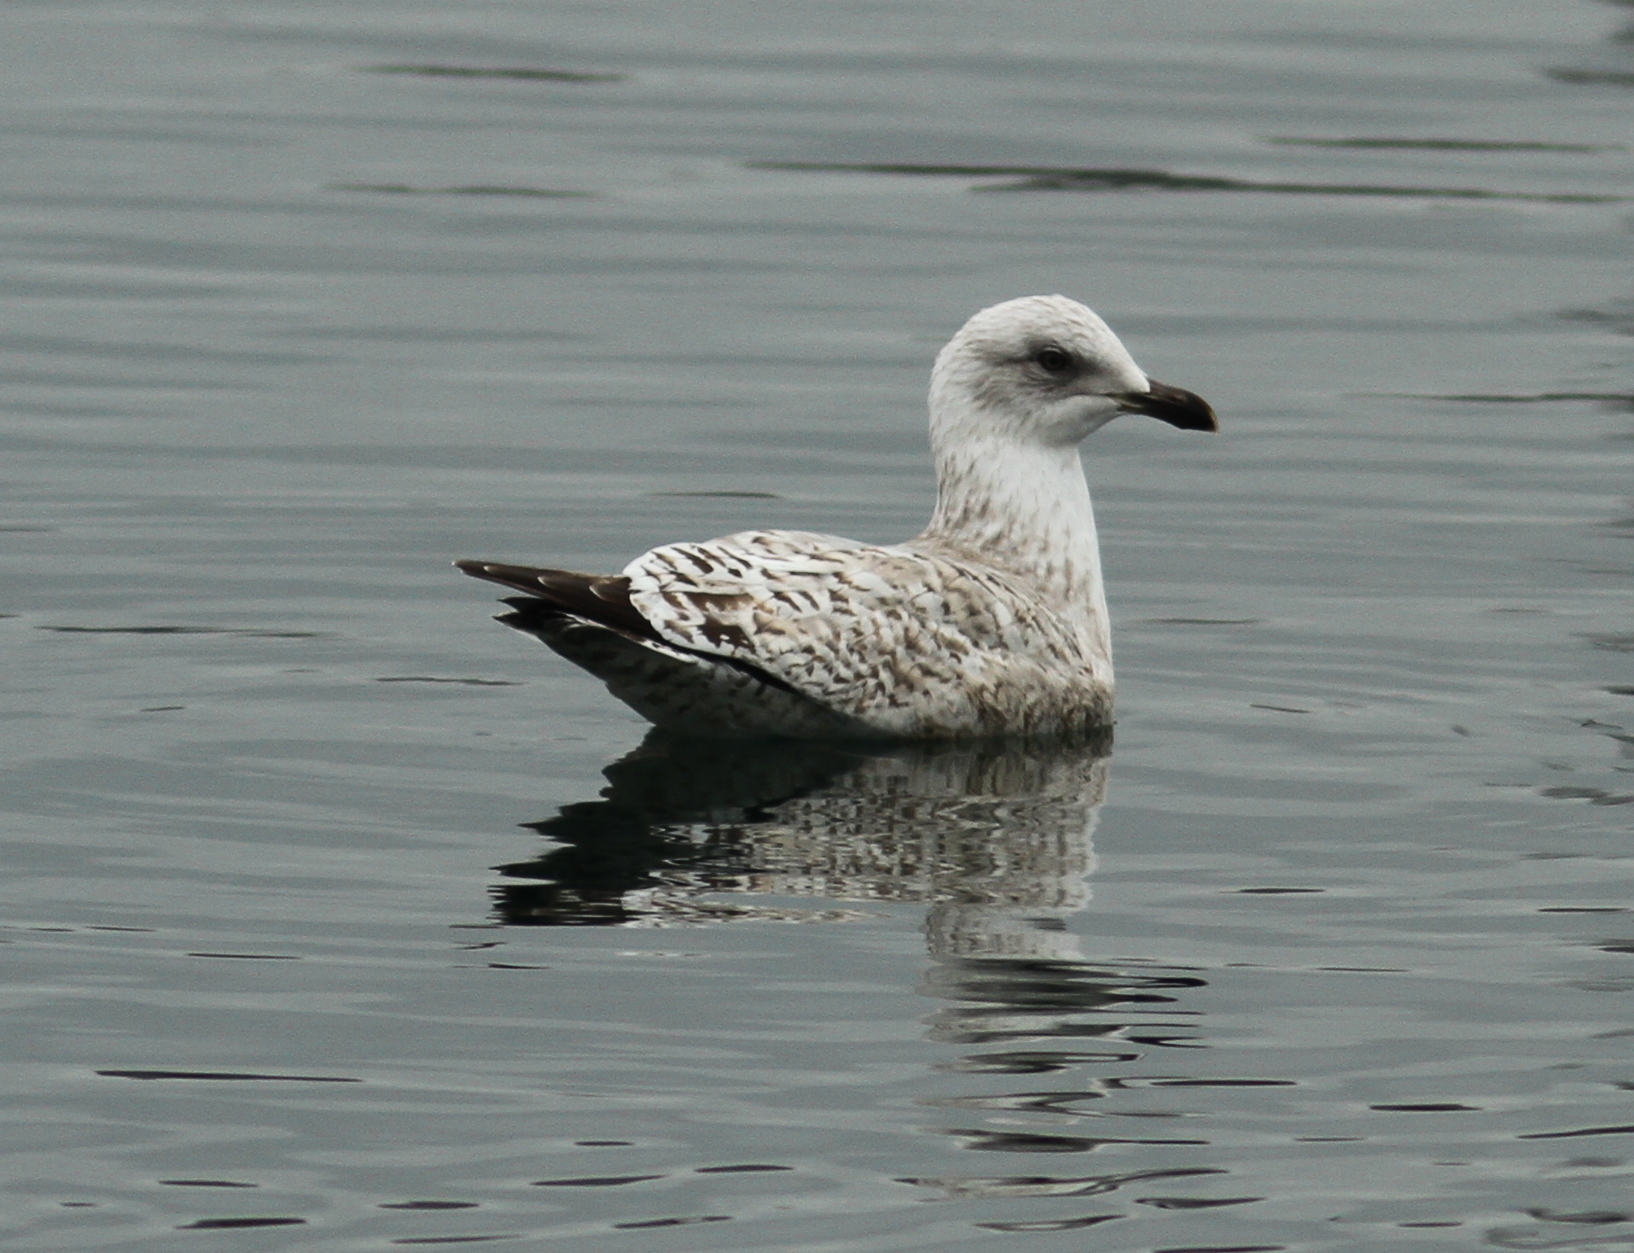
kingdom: Animalia
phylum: Chordata
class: Aves
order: Charadriiformes
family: Laridae
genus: Larus
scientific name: Larus argentatus
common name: Herring gull
